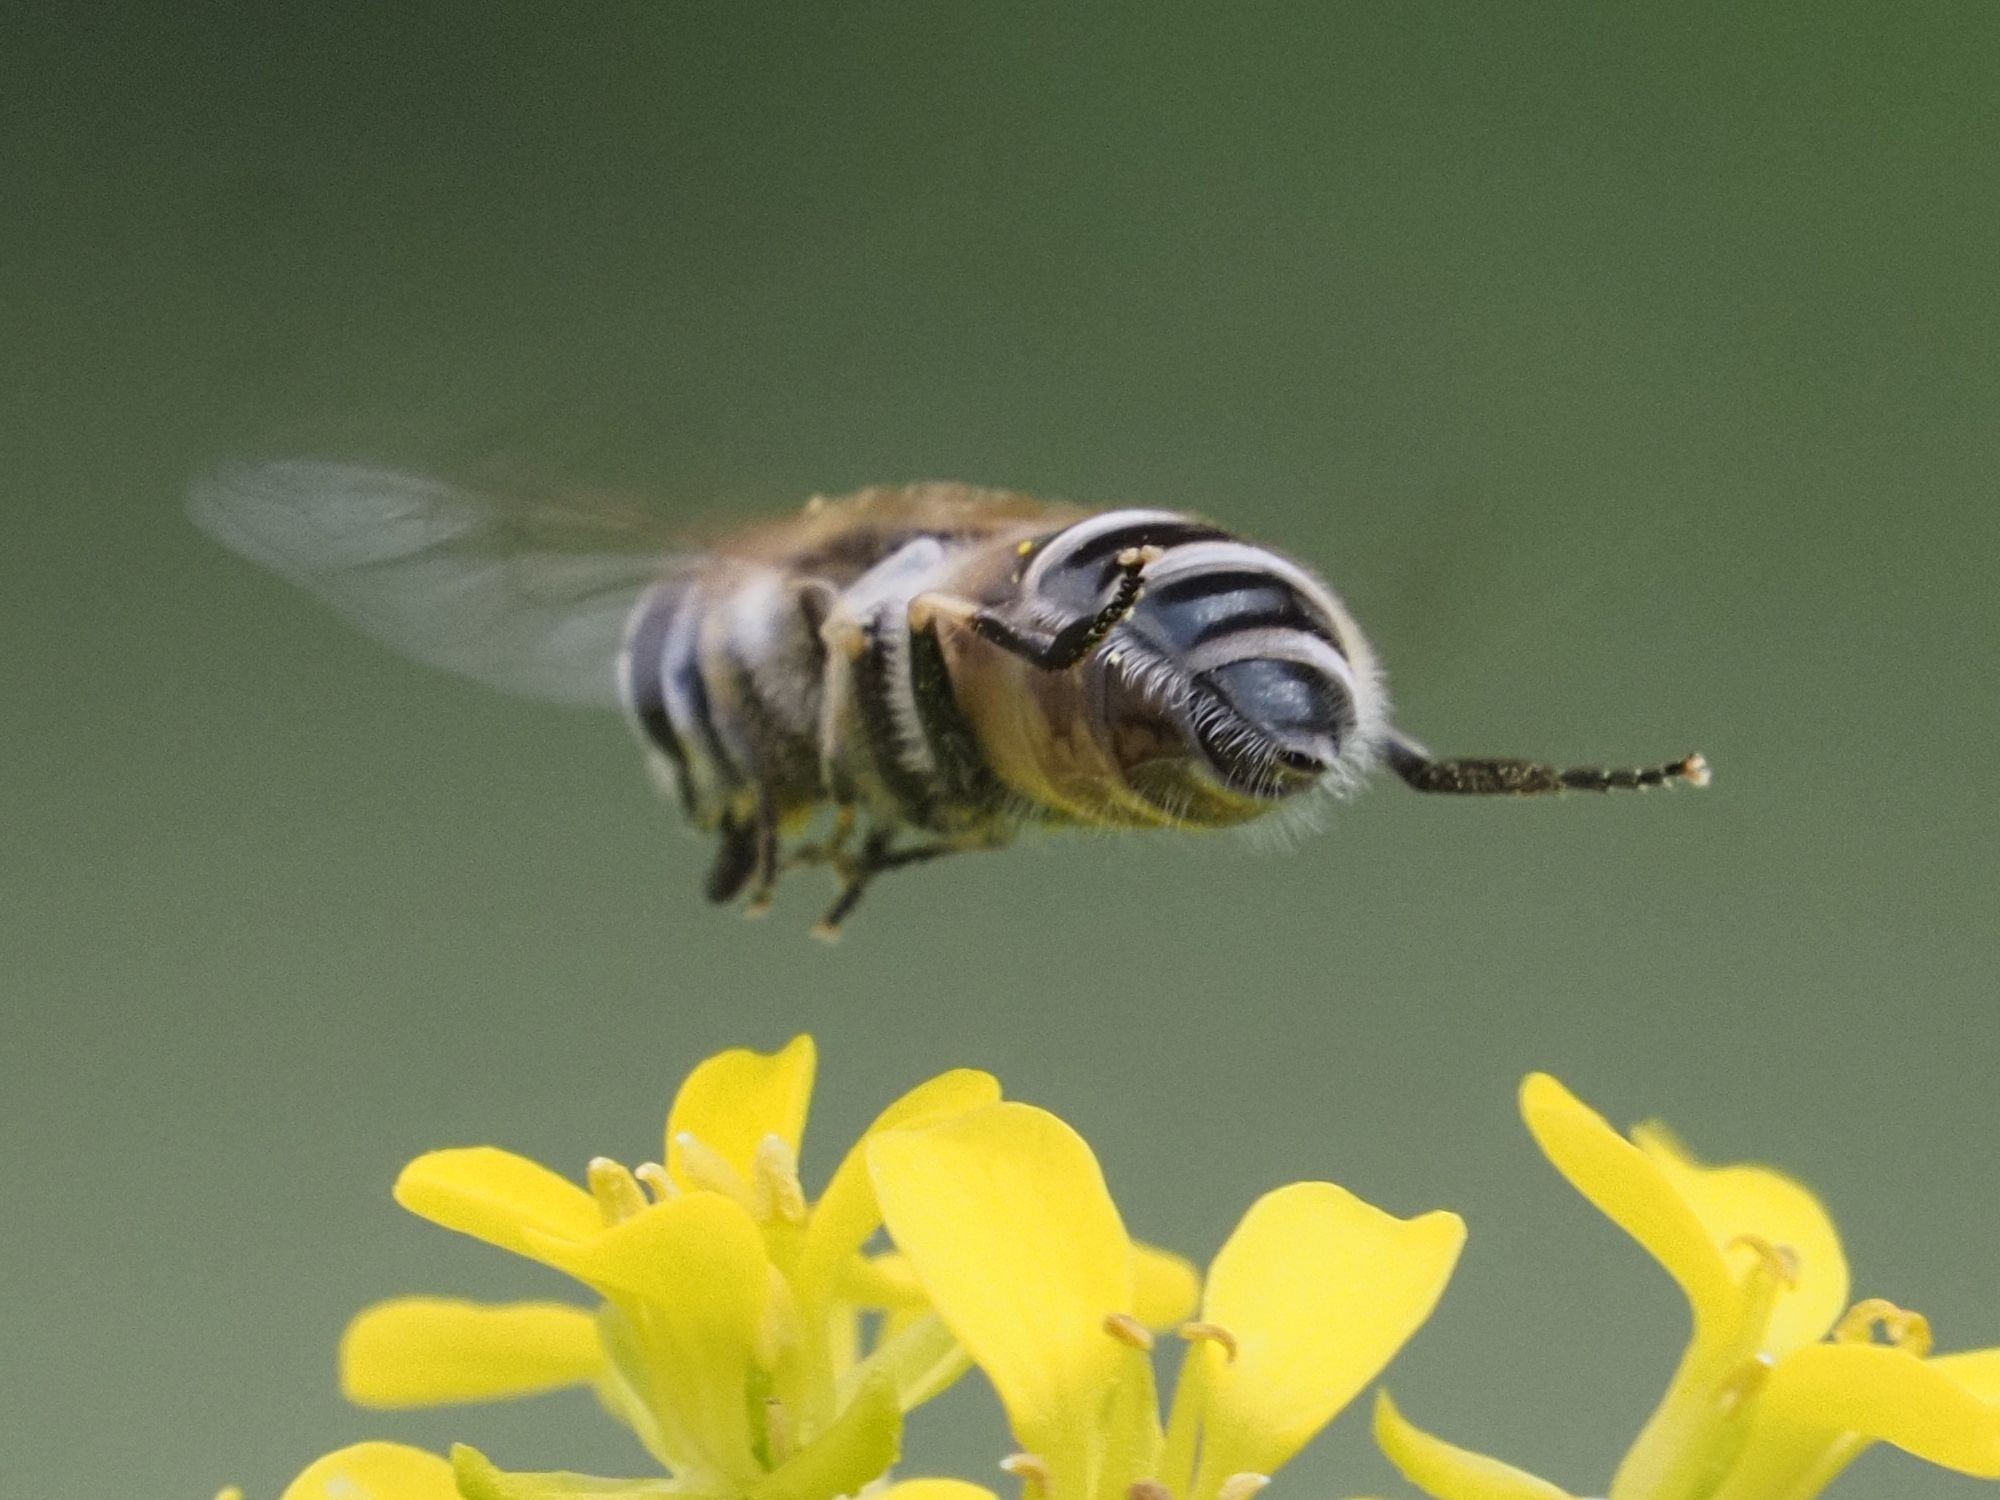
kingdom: Animalia
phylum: Arthropoda
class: Insecta
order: Diptera
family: Syrphidae
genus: Eristalis
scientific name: Eristalis arbustorum
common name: Hover fly
